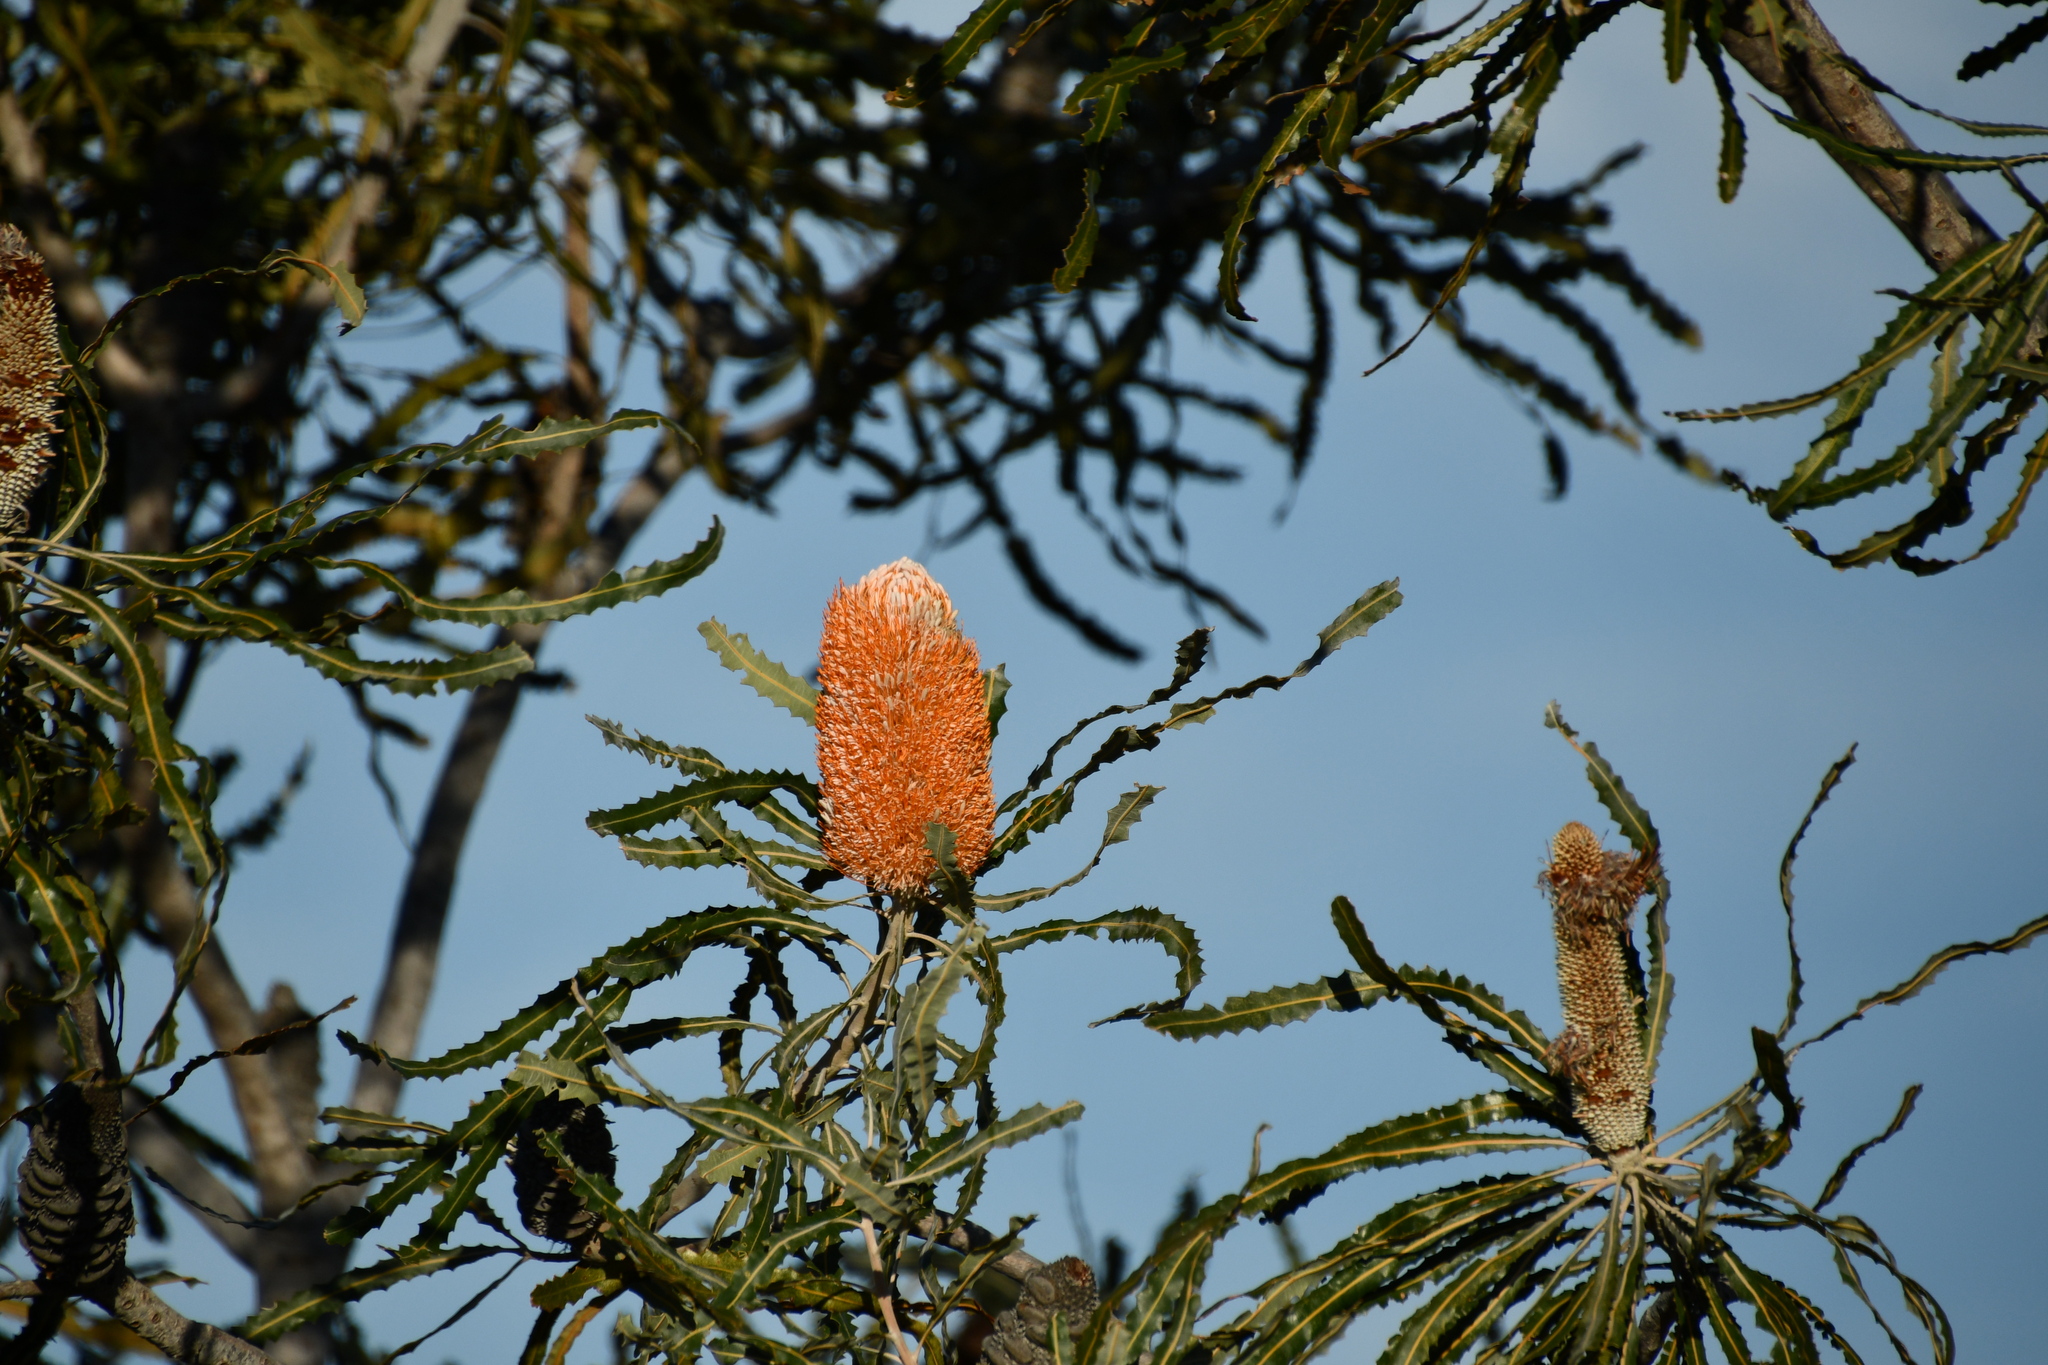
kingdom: Plantae
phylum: Tracheophyta
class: Magnoliopsida
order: Proteales
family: Proteaceae
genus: Banksia
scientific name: Banksia prionotes
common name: Acorn banksia
